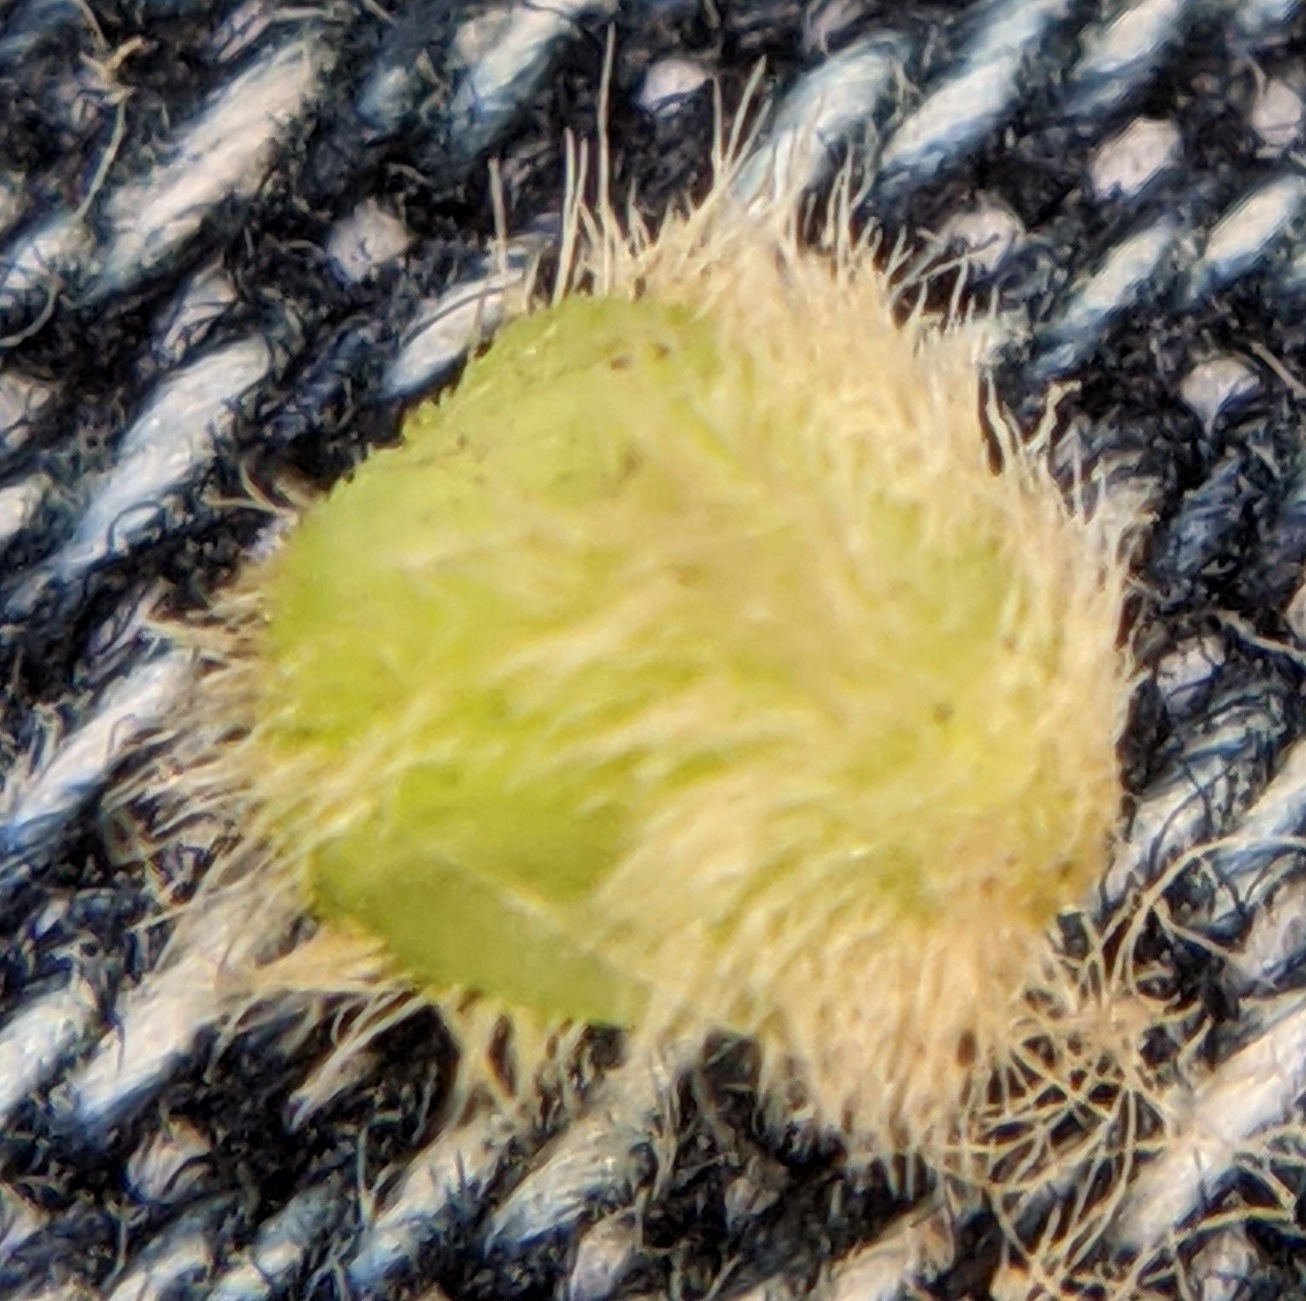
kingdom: Animalia
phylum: Arthropoda
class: Insecta
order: Hymenoptera
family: Cynipidae
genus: Callirhytis
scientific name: Callirhytis
